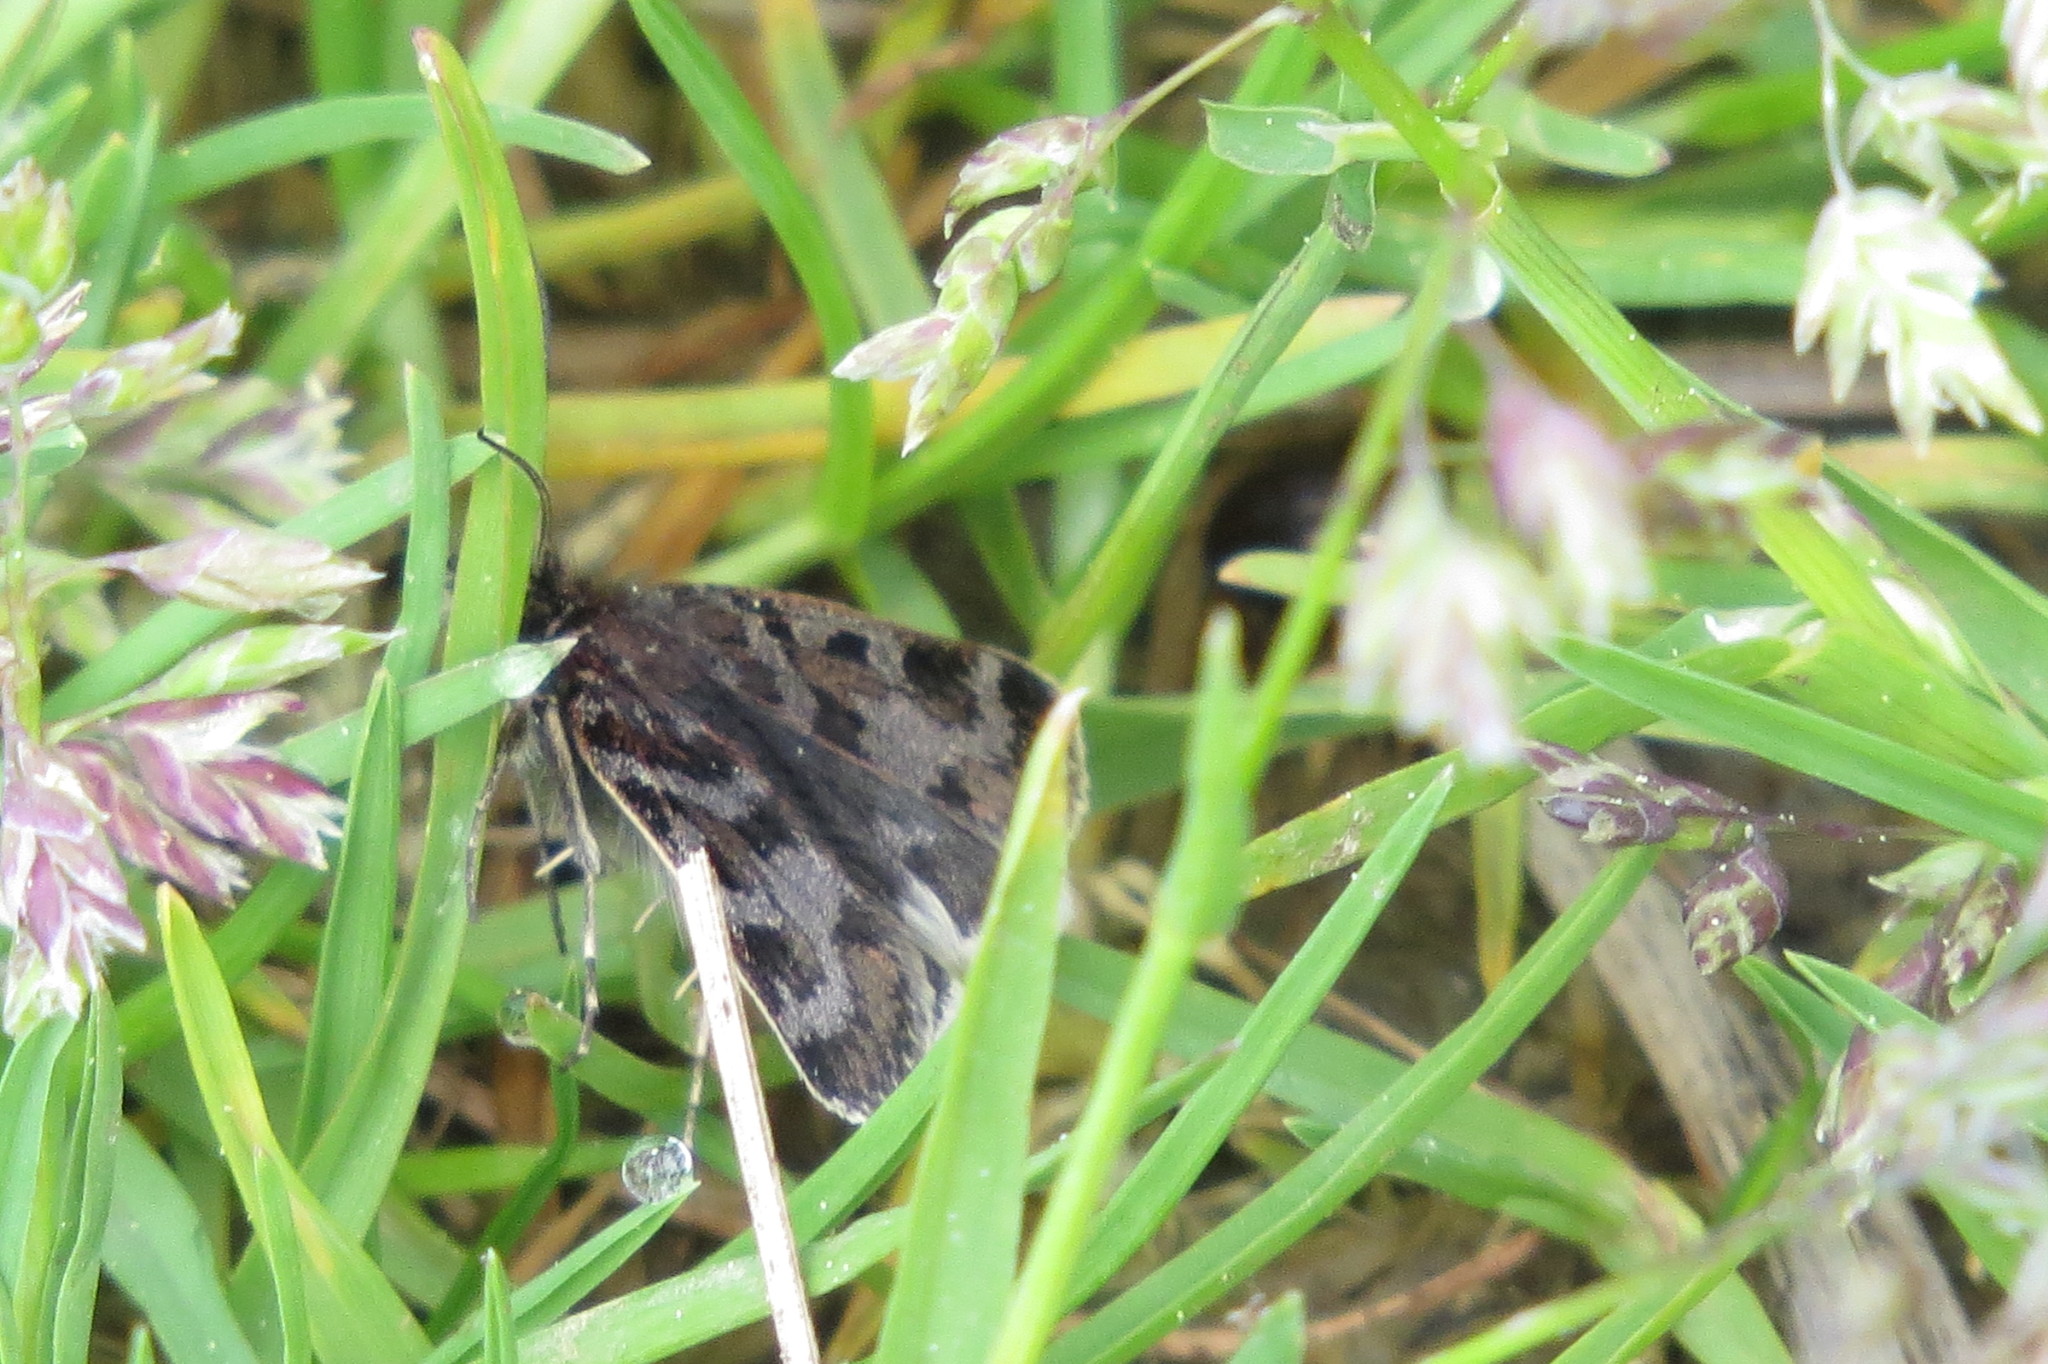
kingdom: Animalia
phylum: Arthropoda
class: Insecta
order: Lepidoptera
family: Crambidae
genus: Metaxmeste
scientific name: Metaxmeste schrankiana
